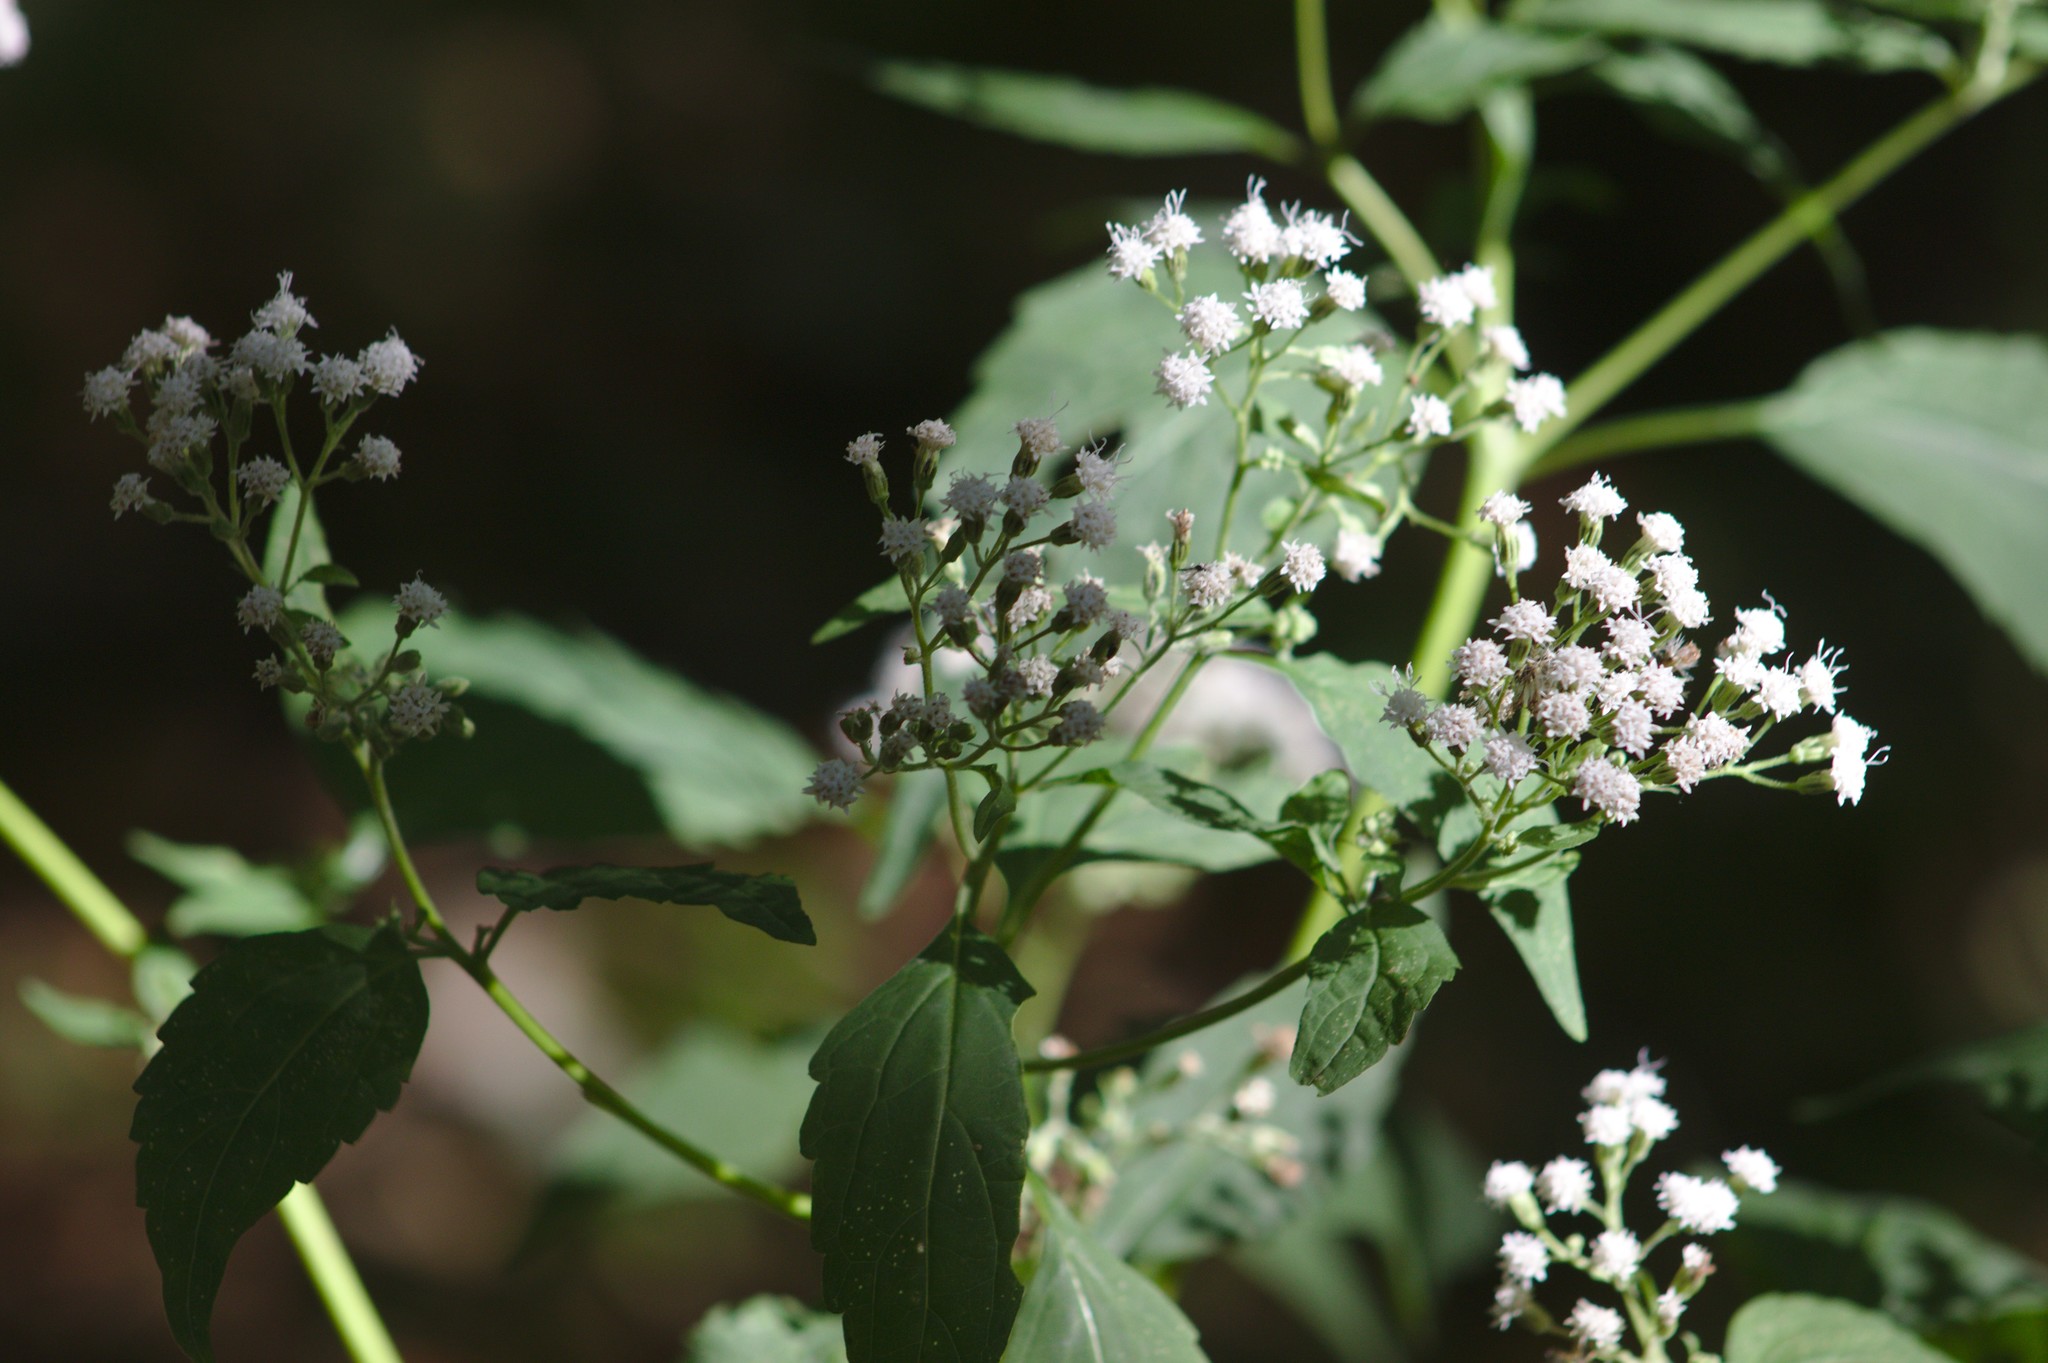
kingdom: Plantae
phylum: Tracheophyta
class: Magnoliopsida
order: Asterales
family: Asteraceae
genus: Ageratina
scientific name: Ageratina altissima
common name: White snakeroot
